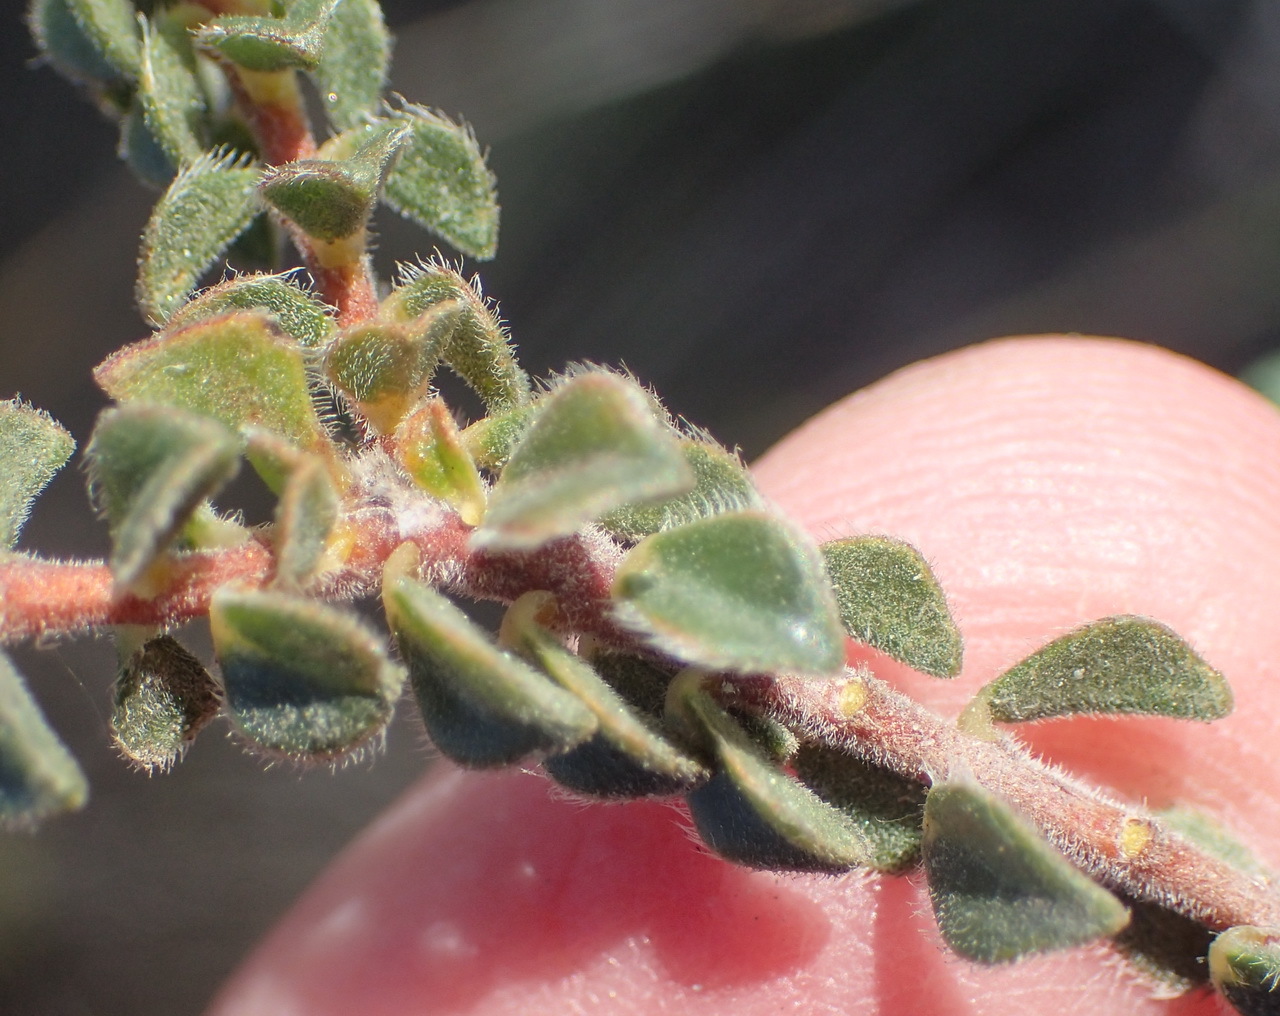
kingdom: Plantae
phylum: Tracheophyta
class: Magnoliopsida
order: Sapindales
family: Rutaceae
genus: Acmadenia
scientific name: Acmadenia tetragona
